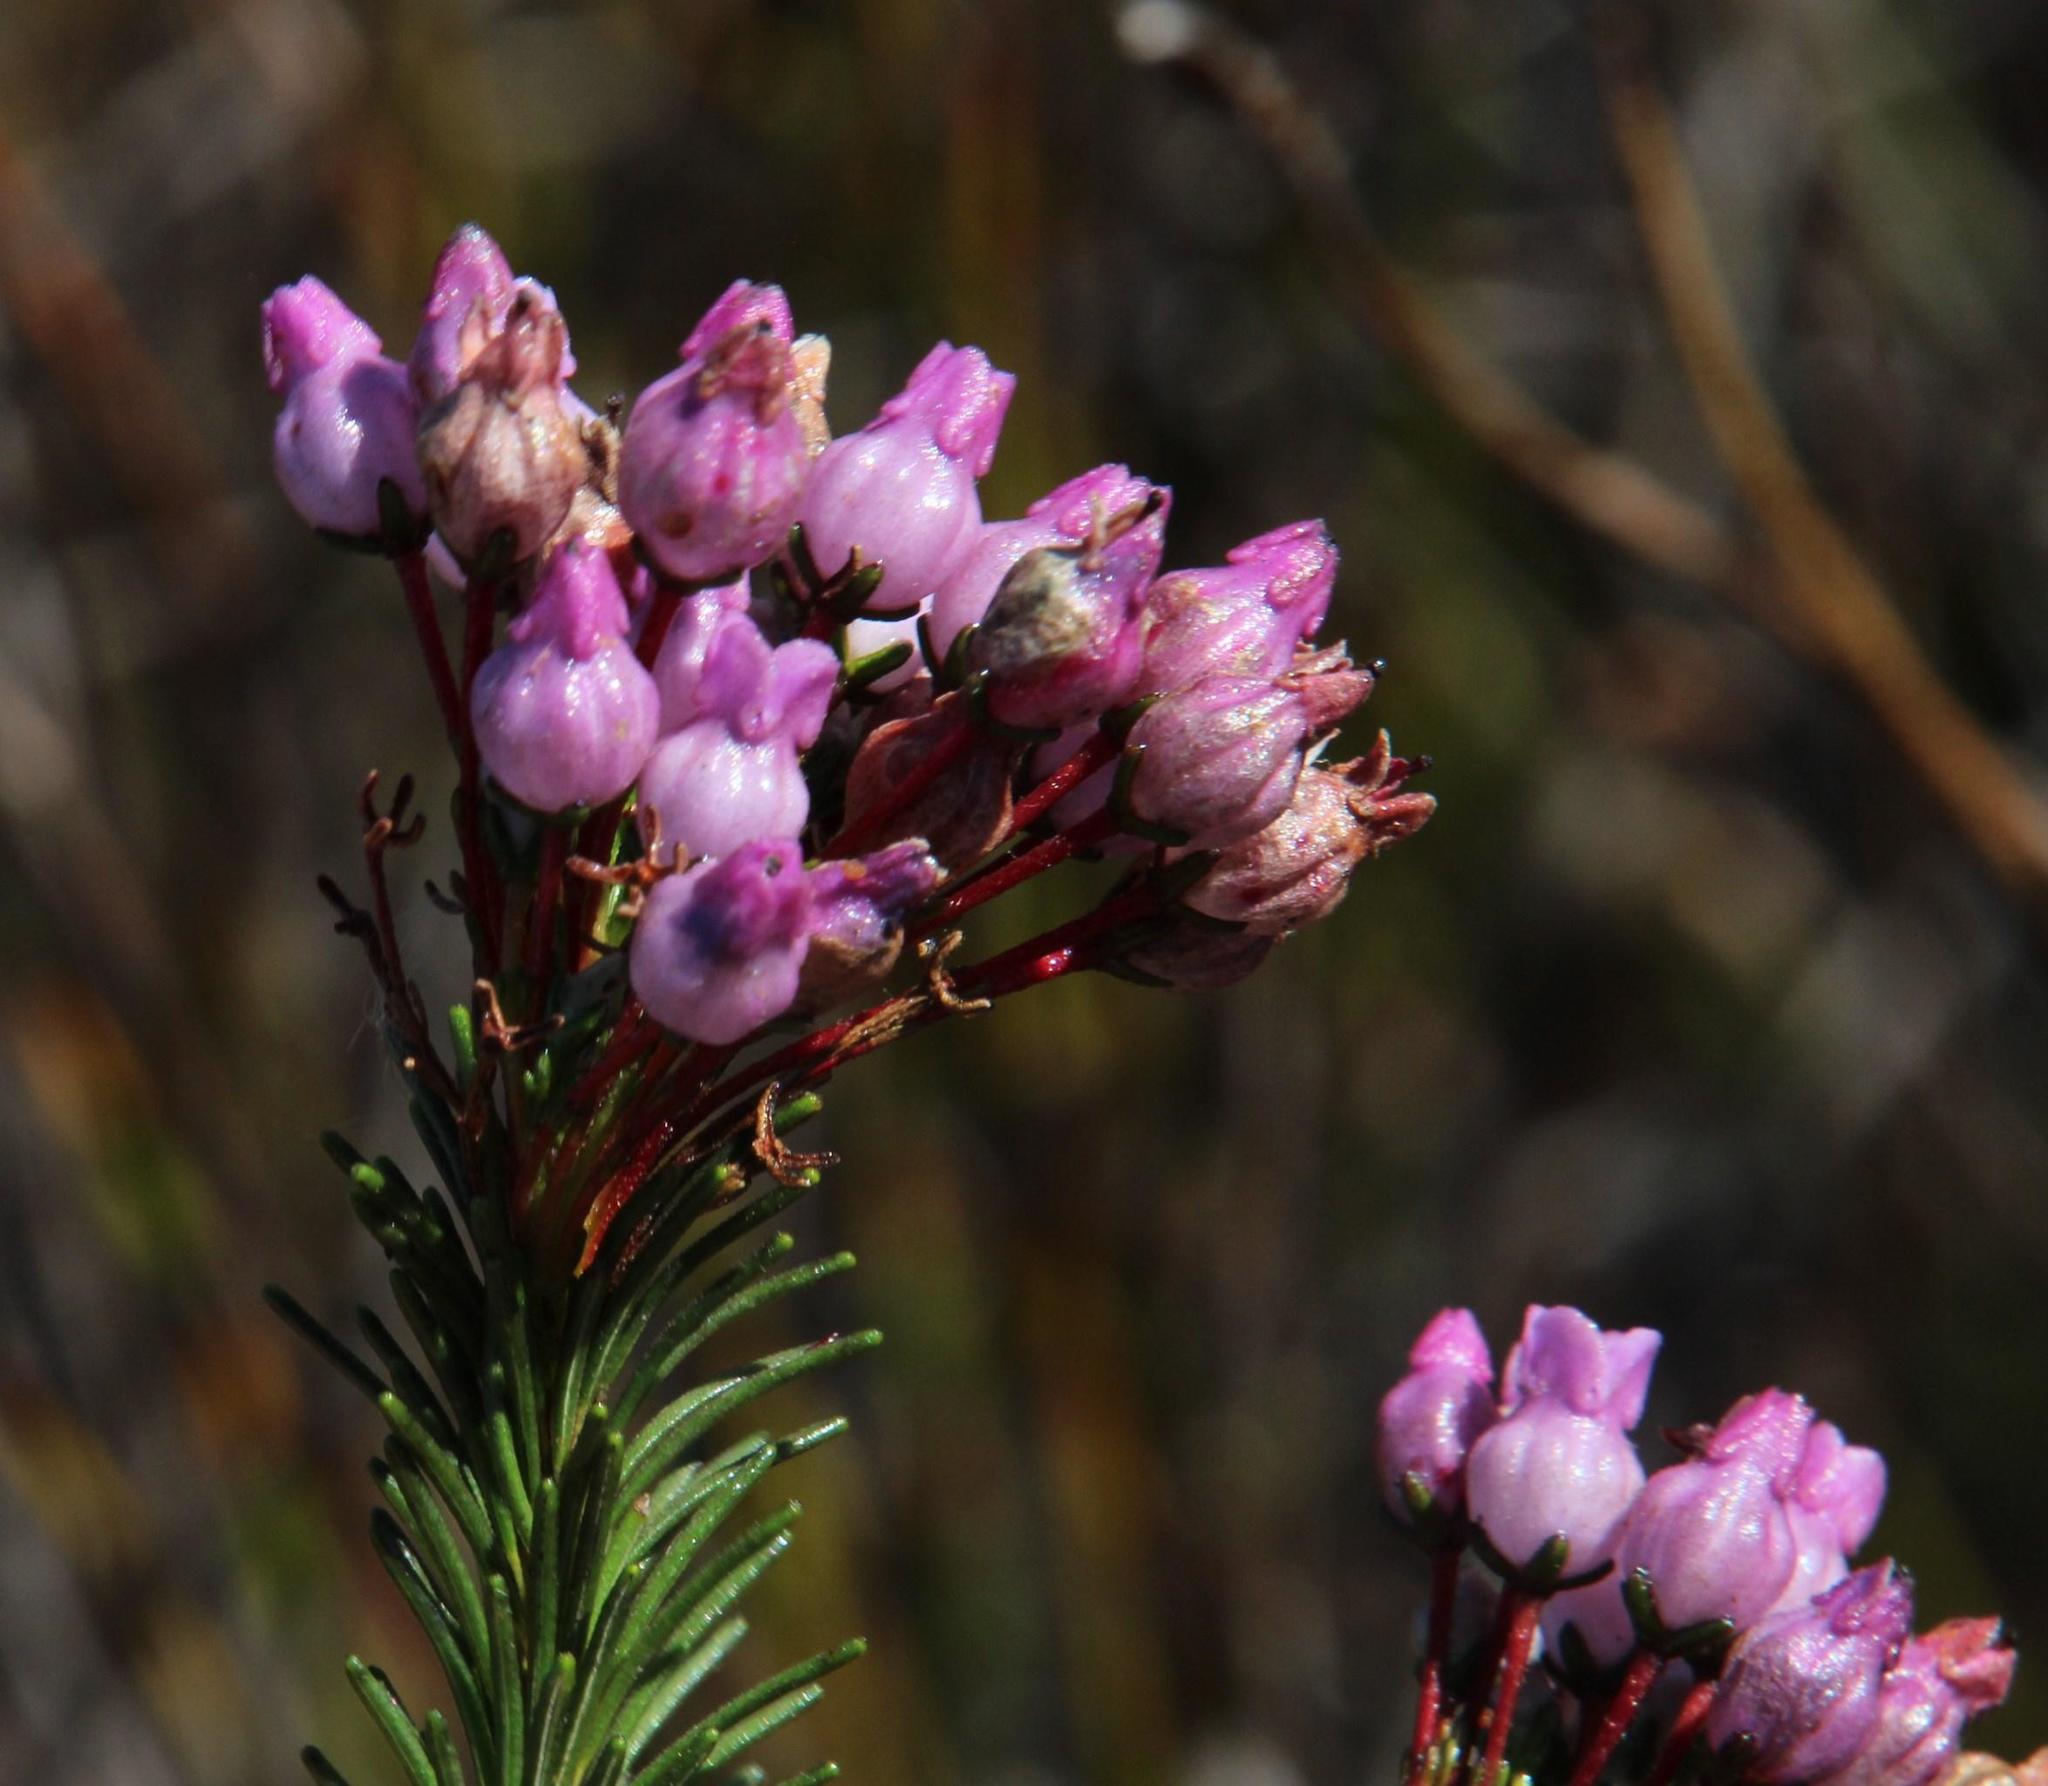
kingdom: Plantae
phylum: Tracheophyta
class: Magnoliopsida
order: Ericales
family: Ericaceae
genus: Erica
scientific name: Erica obliqua
